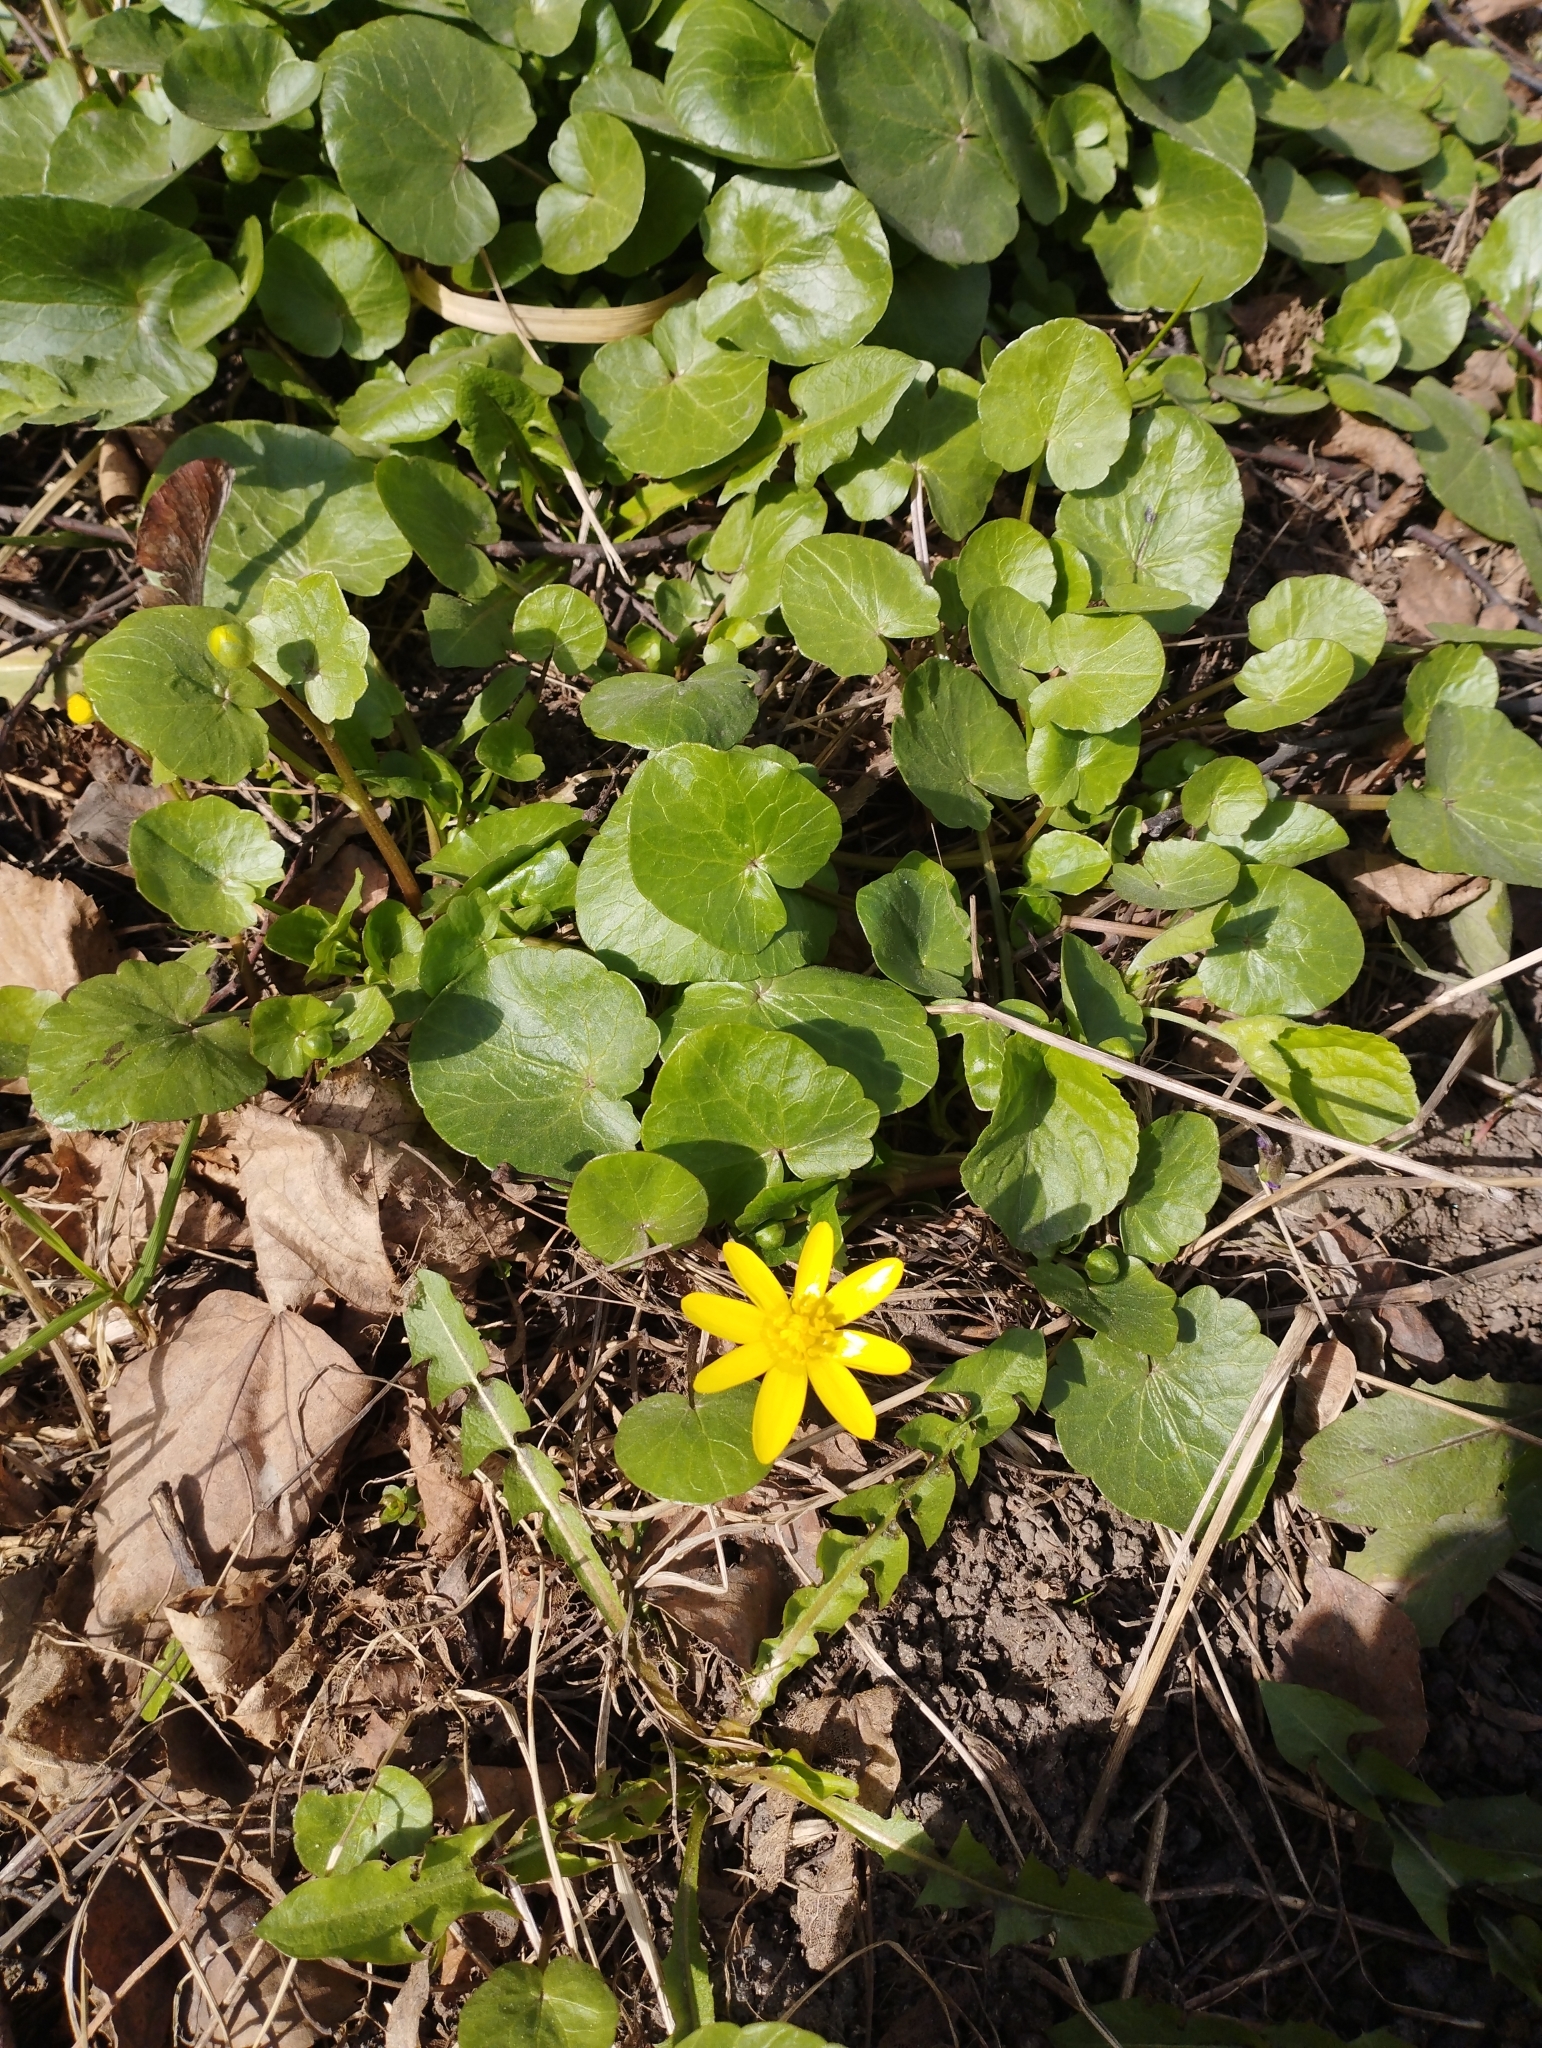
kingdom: Plantae
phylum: Tracheophyta
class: Magnoliopsida
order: Ranunculales
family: Ranunculaceae
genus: Ficaria
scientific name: Ficaria verna
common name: Lesser celandine
